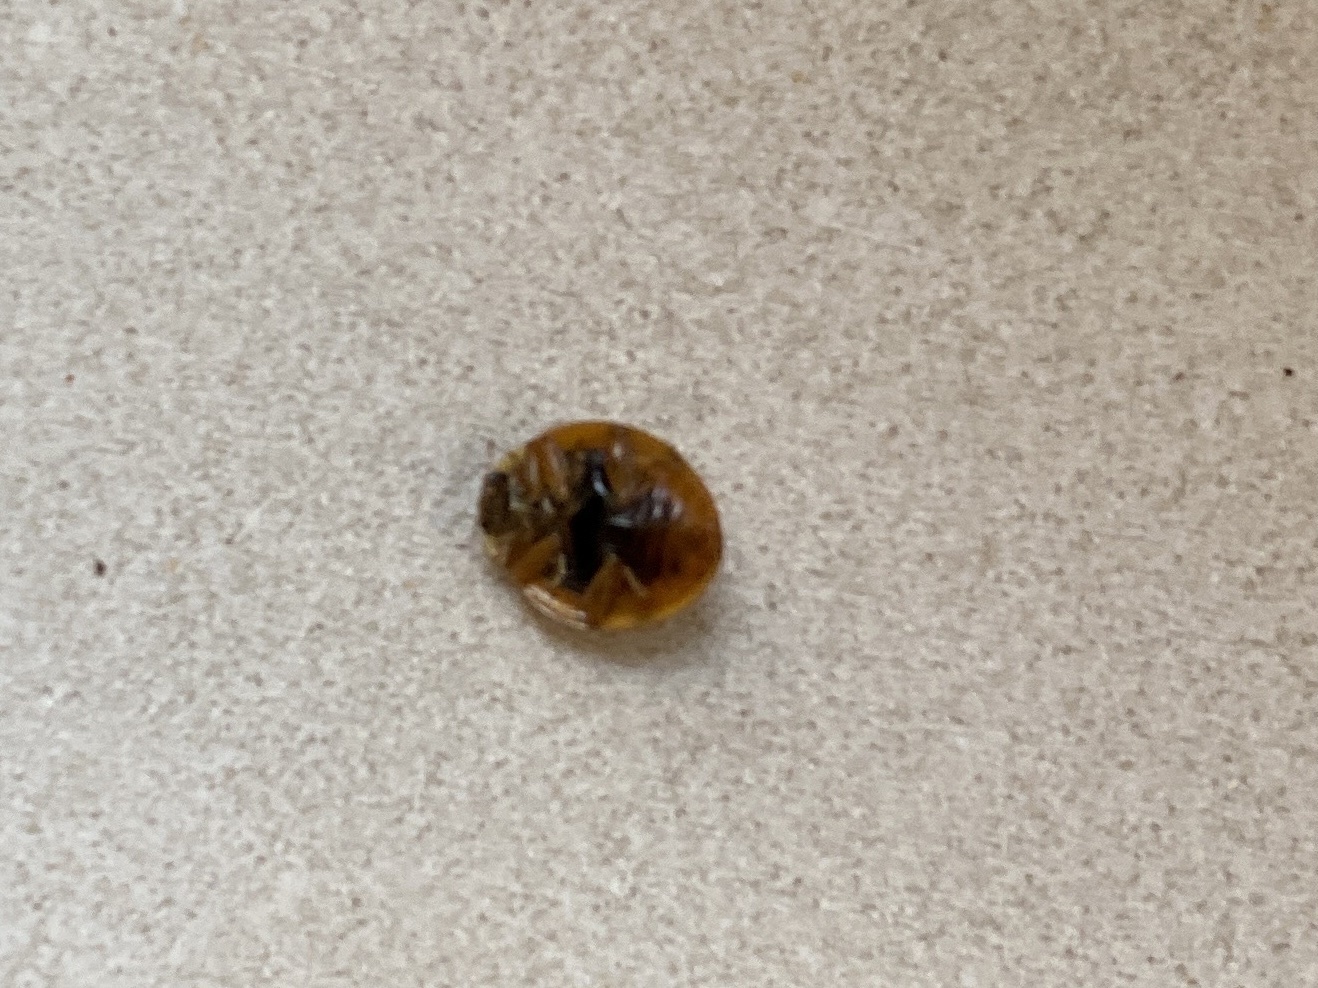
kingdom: Animalia
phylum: Arthropoda
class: Insecta
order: Coleoptera
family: Coccinellidae
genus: Harmonia
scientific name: Harmonia axyridis
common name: Harlequin ladybird
